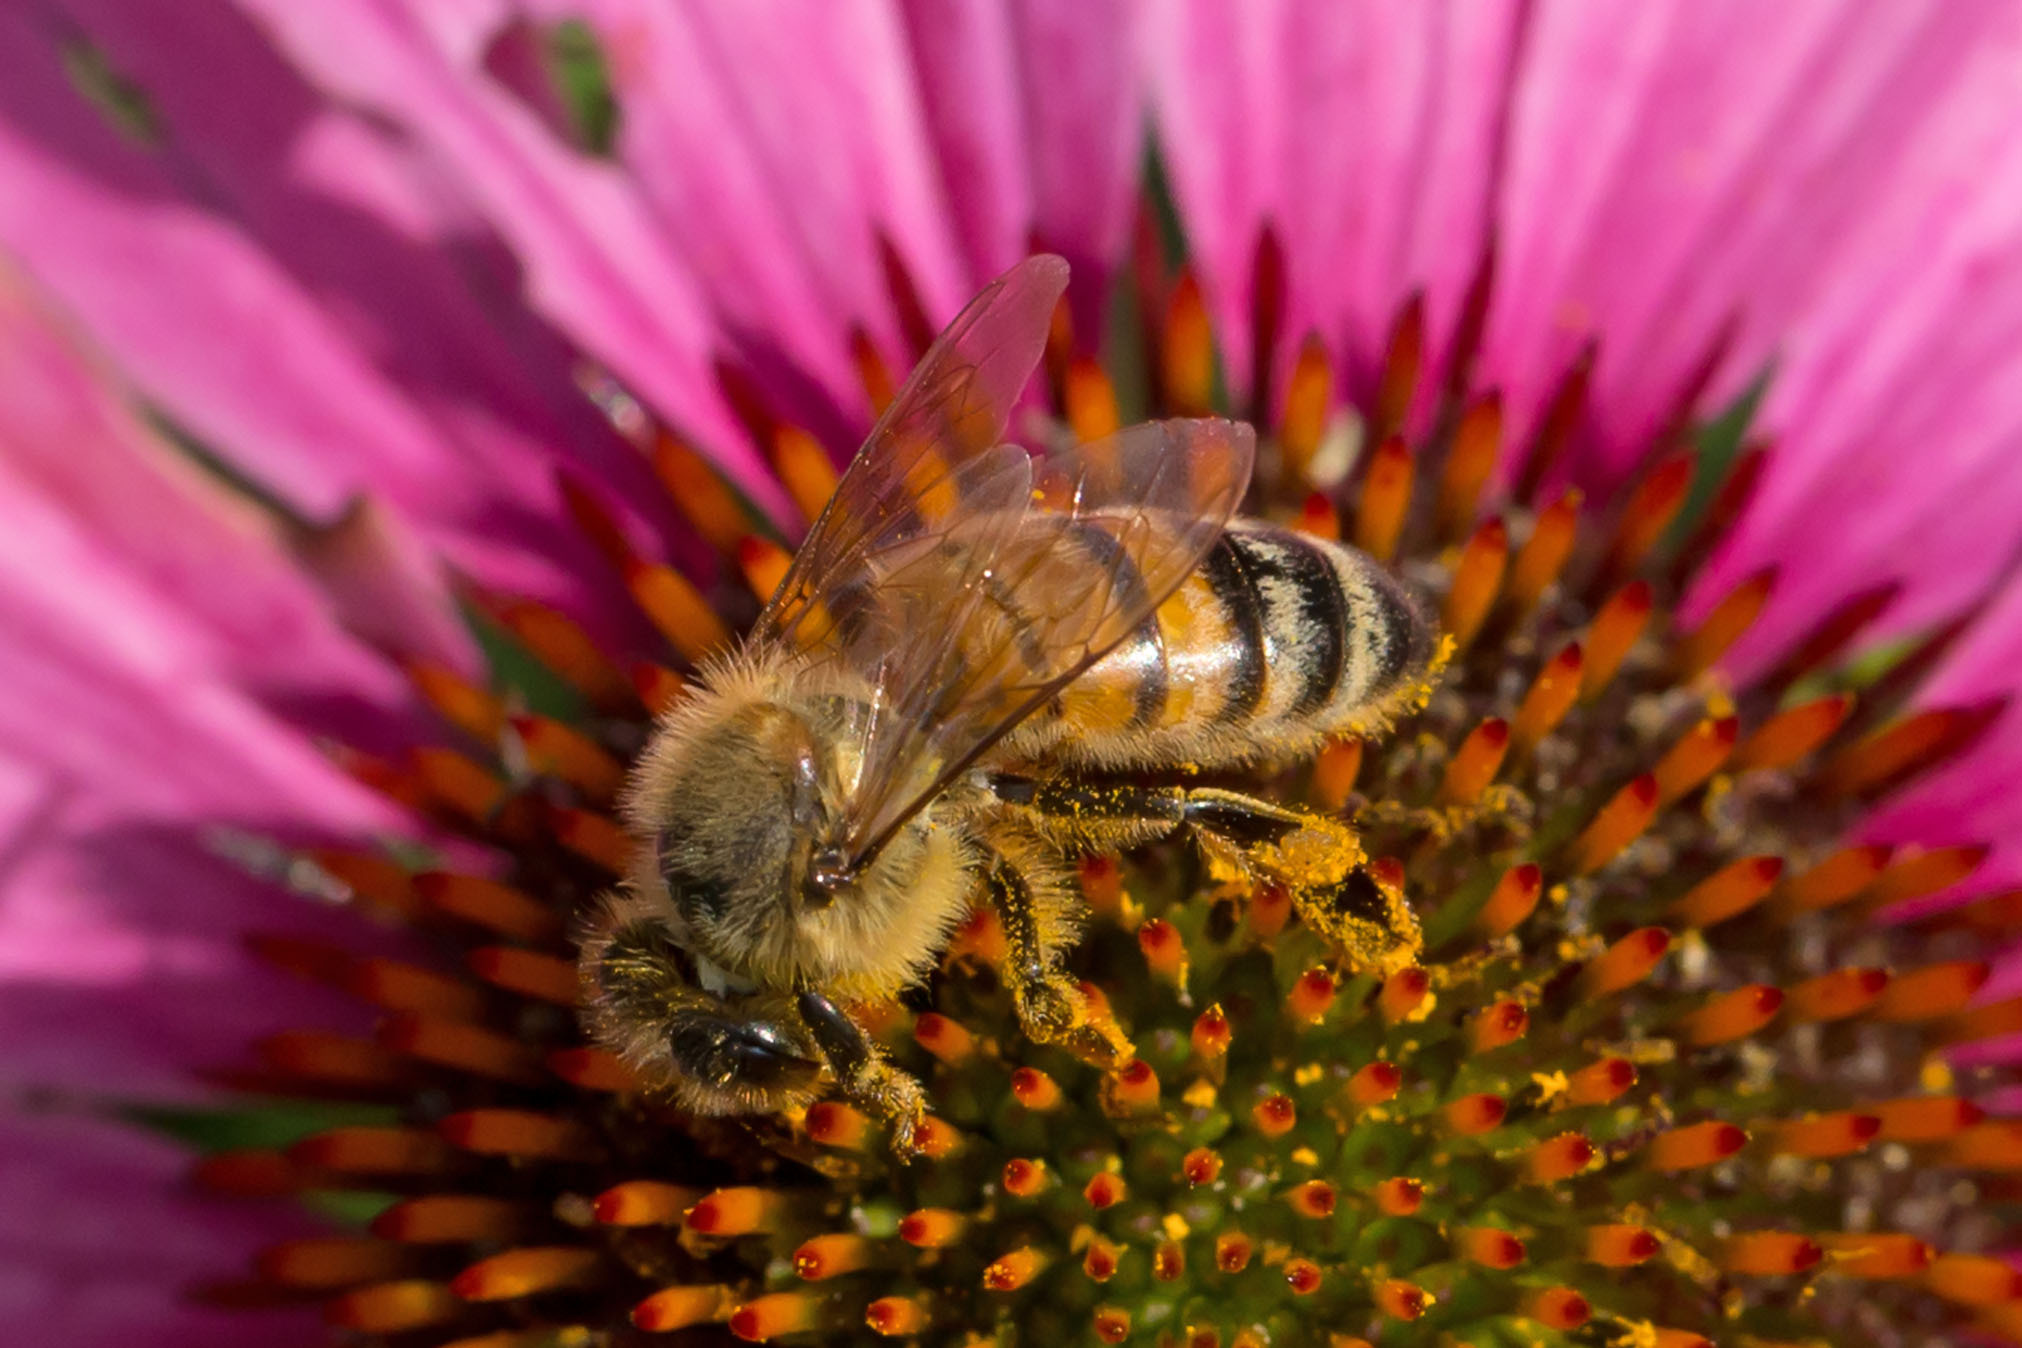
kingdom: Animalia
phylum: Arthropoda
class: Insecta
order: Hymenoptera
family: Apidae
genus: Apis
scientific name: Apis mellifera
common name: Honey bee
